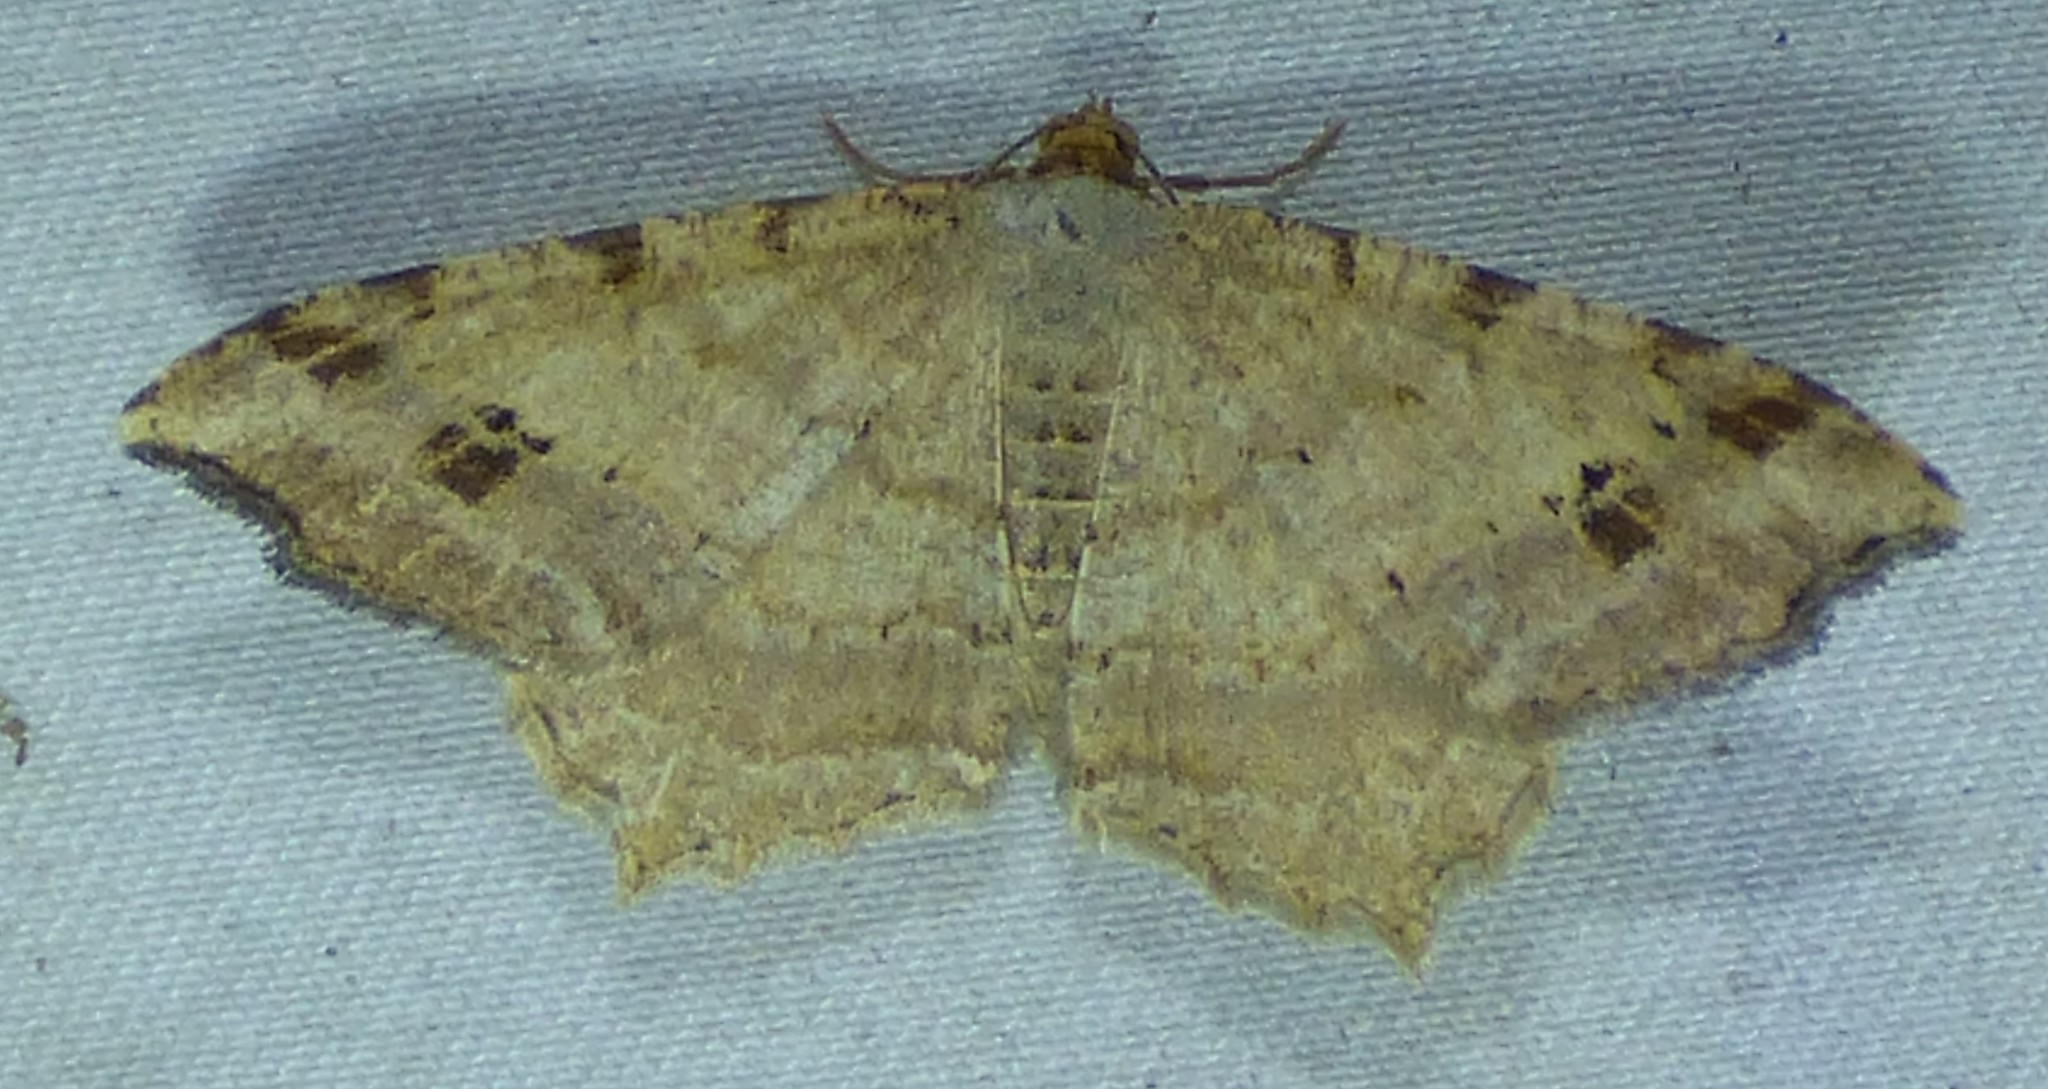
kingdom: Animalia
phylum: Arthropoda
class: Insecta
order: Lepidoptera
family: Geometridae
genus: Macaria
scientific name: Macaria aemulataria
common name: Common angle
